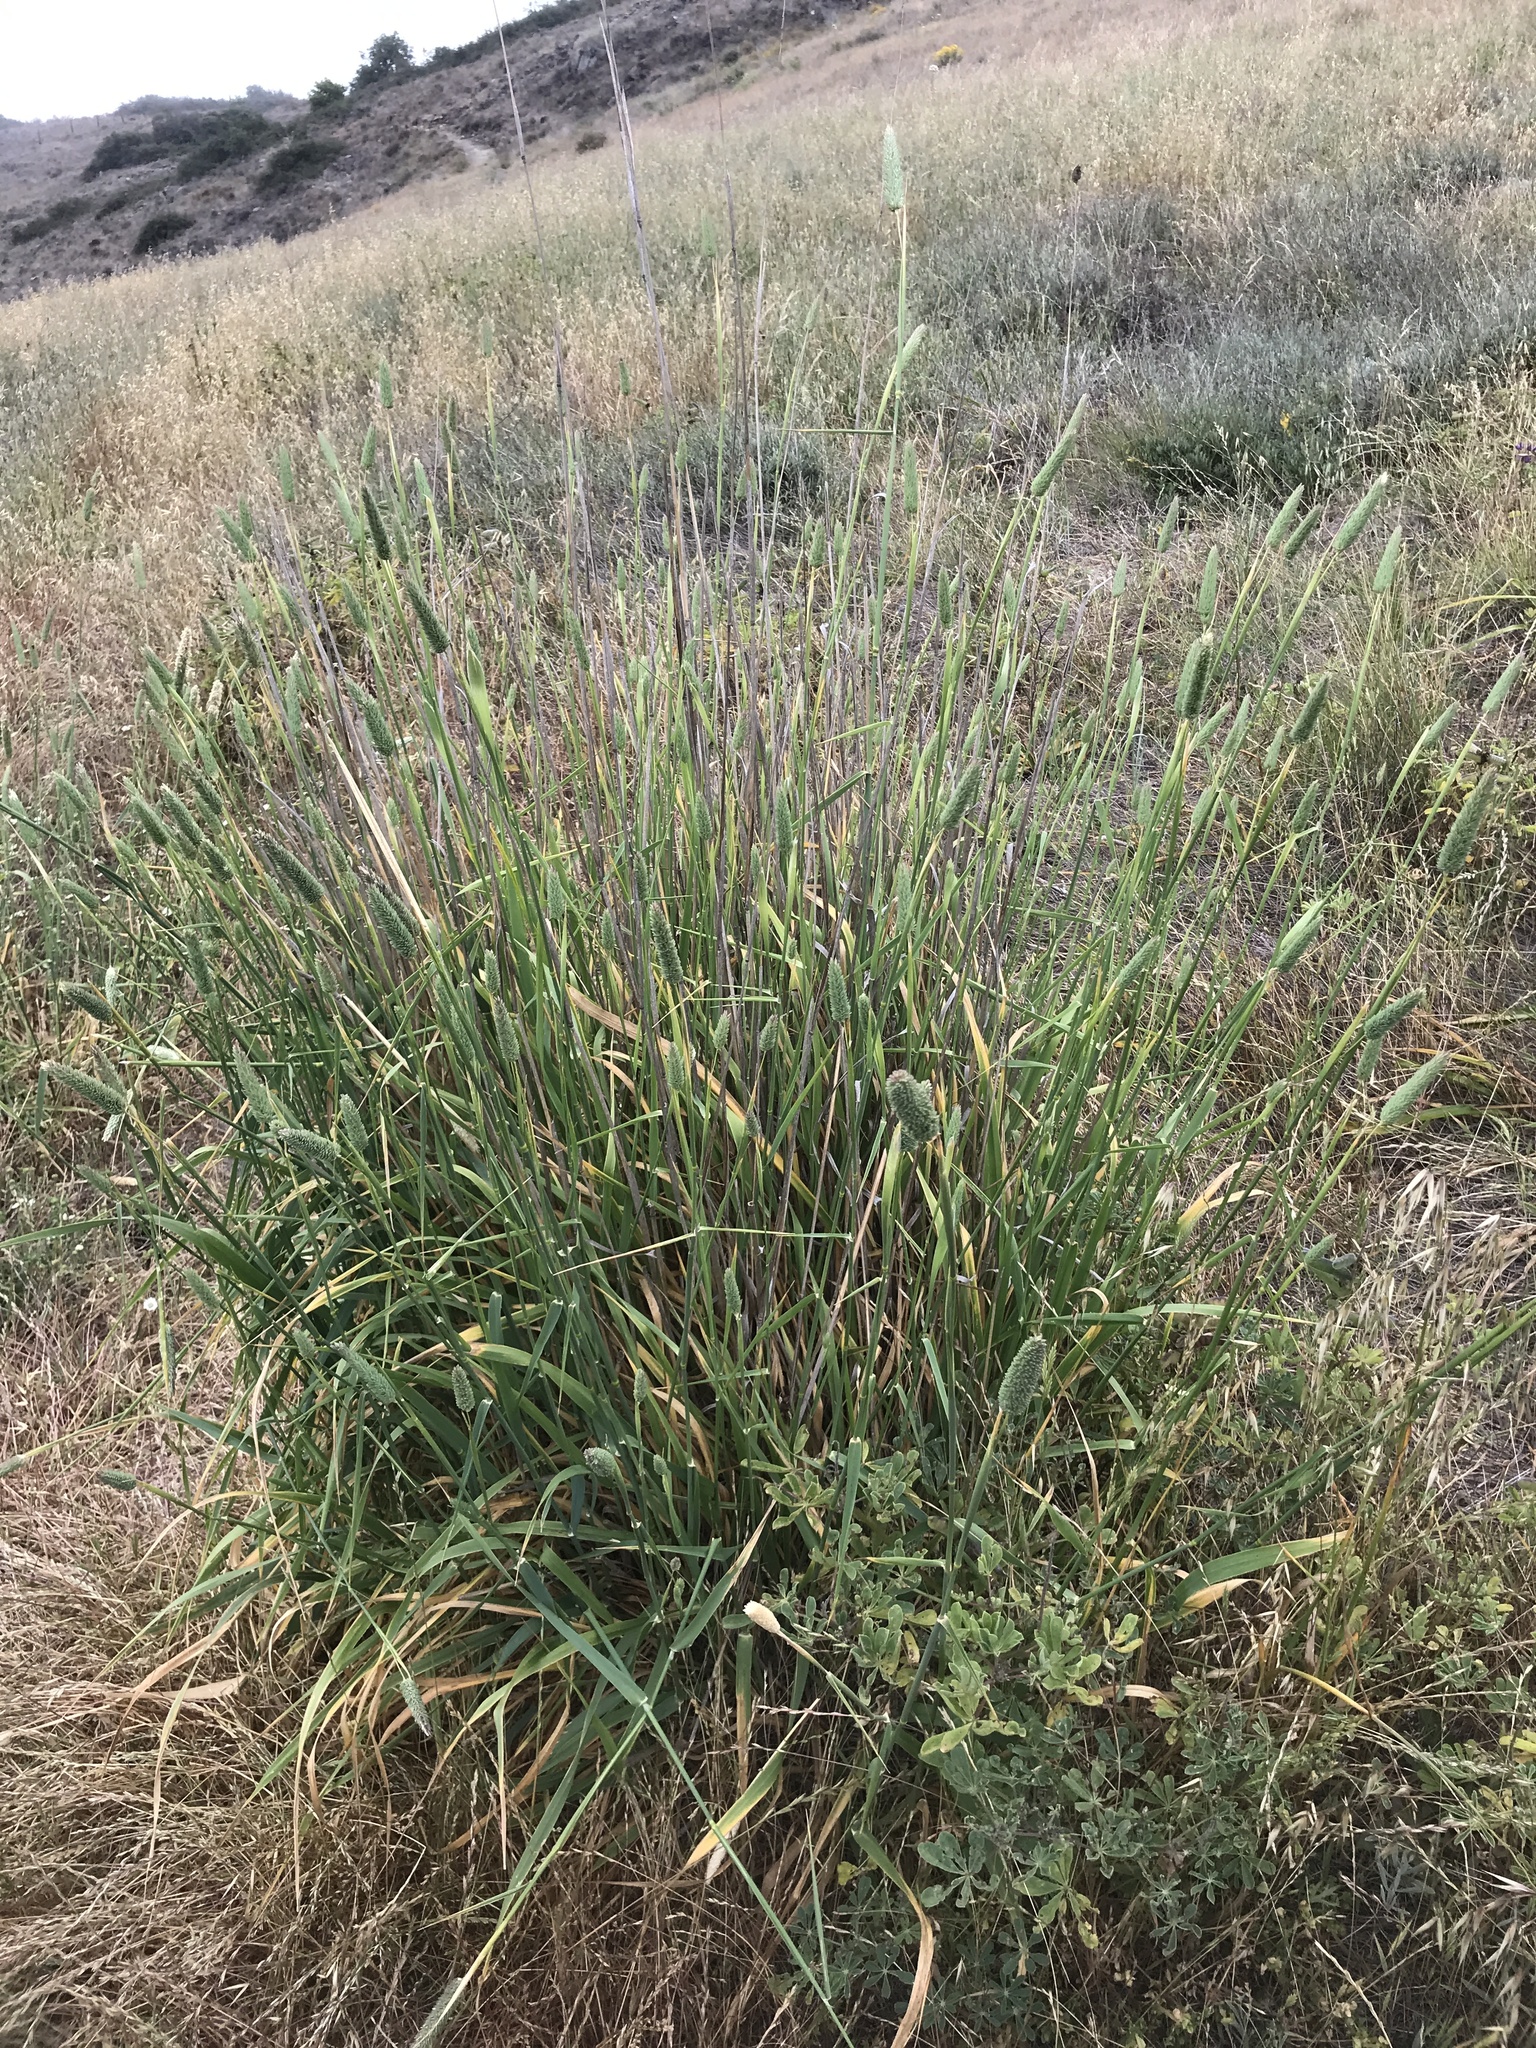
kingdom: Plantae
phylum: Tracheophyta
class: Liliopsida
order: Poales
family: Poaceae
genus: Phalaris
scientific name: Phalaris aquatica
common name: Bulbous canary-grass
